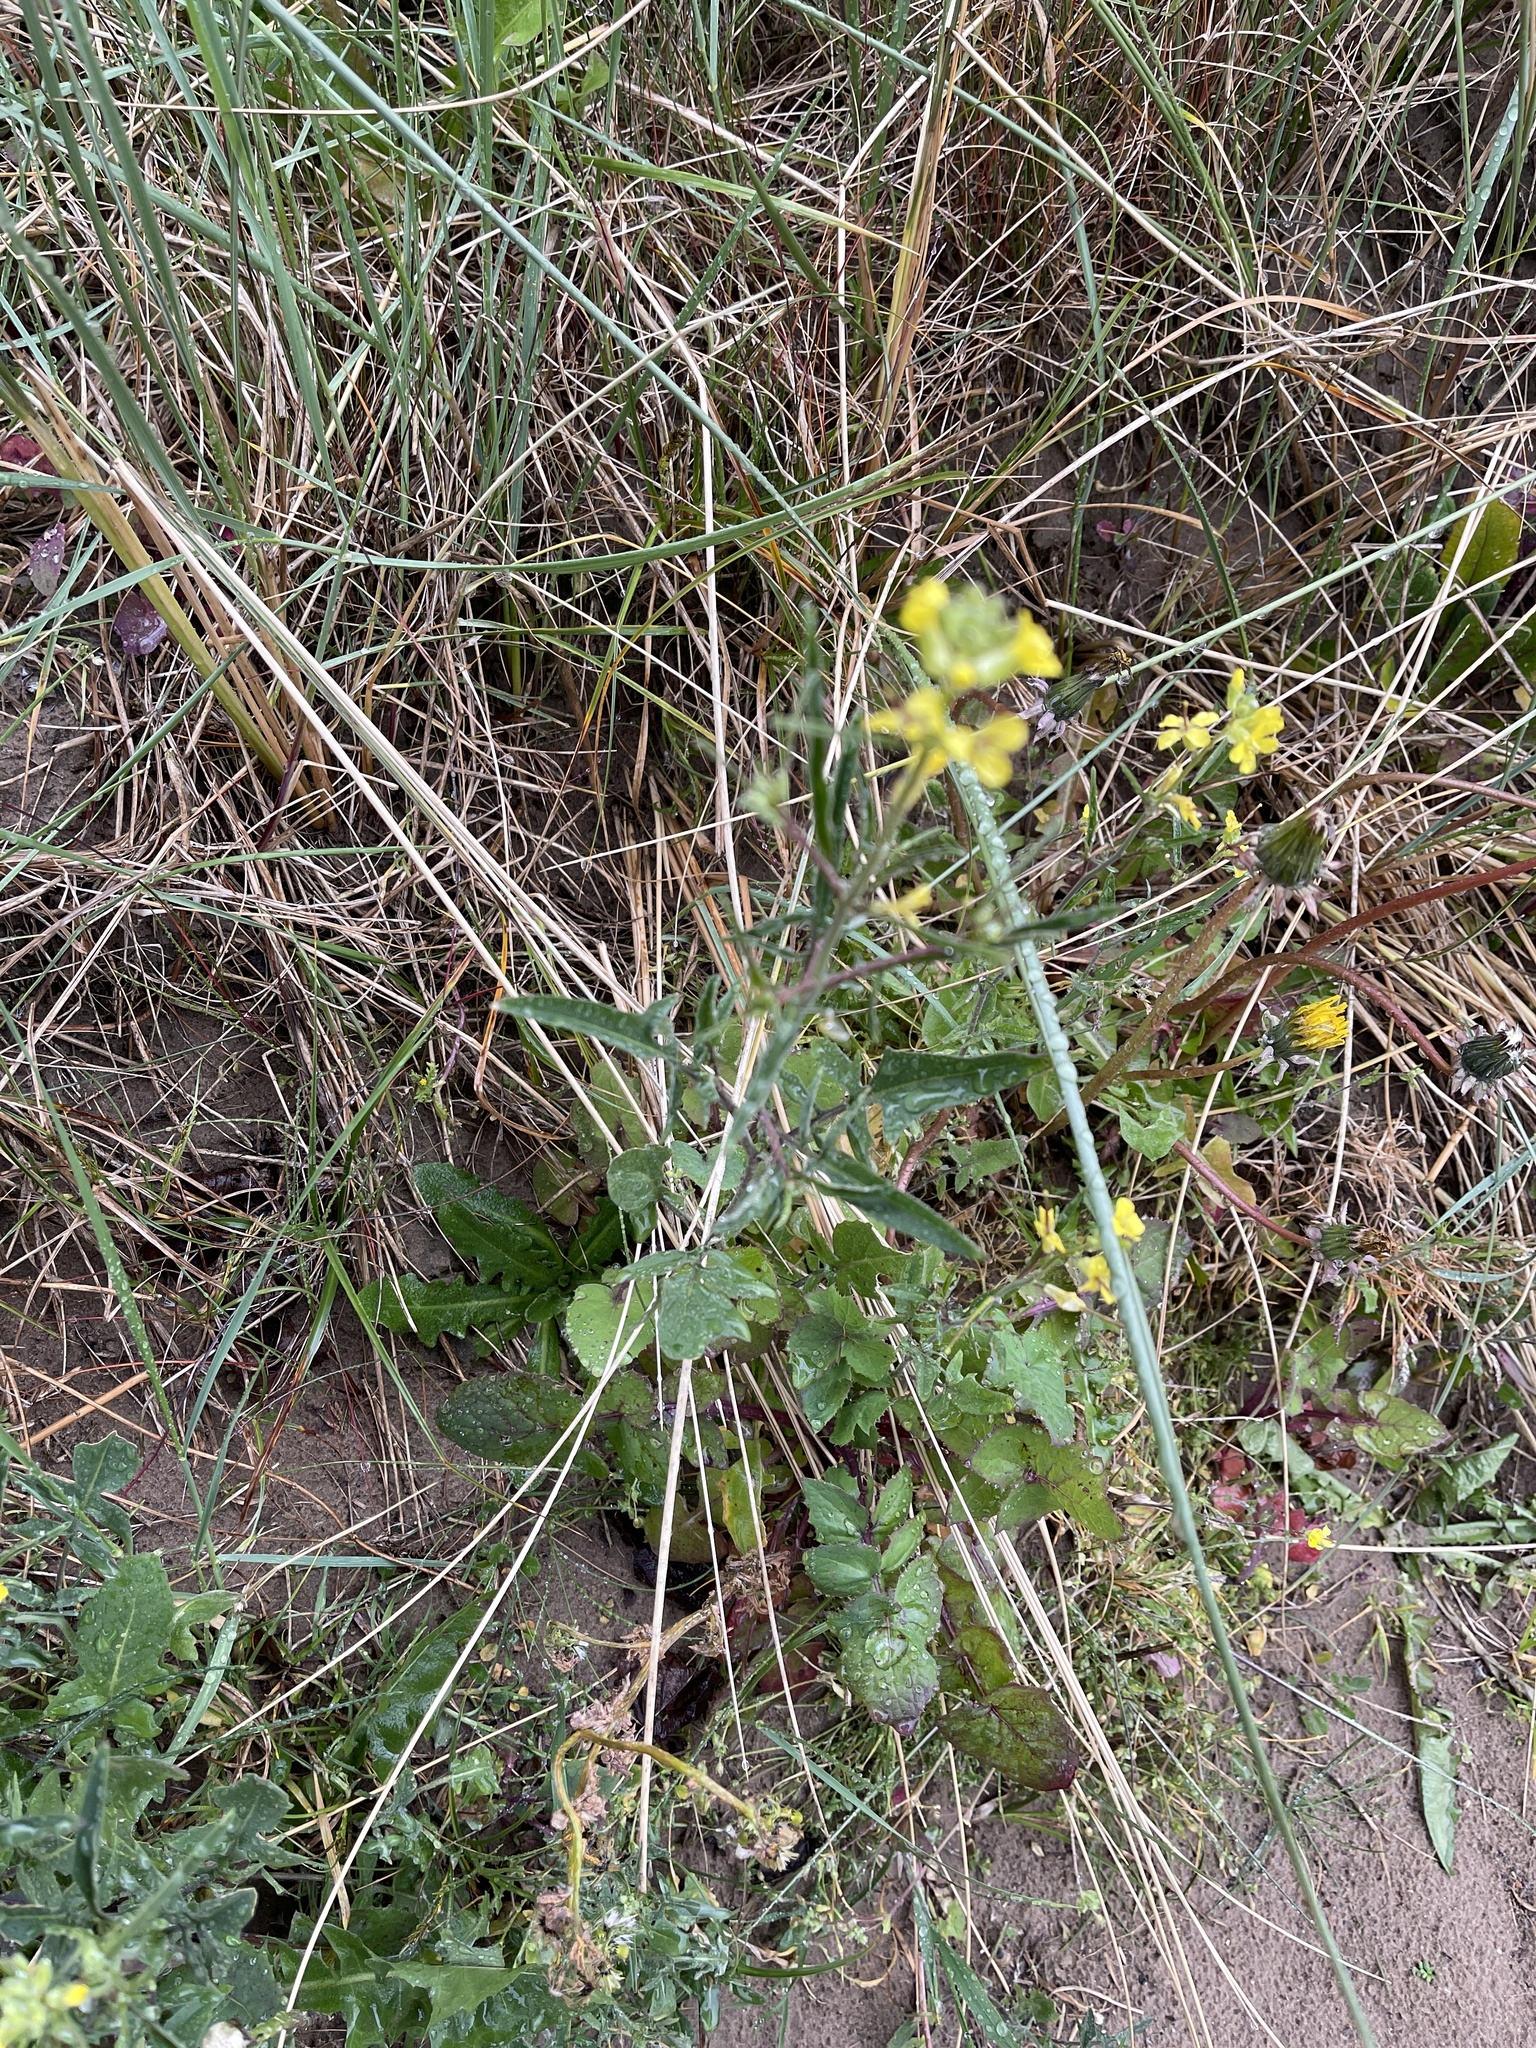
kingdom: Plantae
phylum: Tracheophyta
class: Magnoliopsida
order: Brassicales
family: Brassicaceae
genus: Sisymbrium
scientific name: Sisymbrium orientale
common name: Eastern rocket
